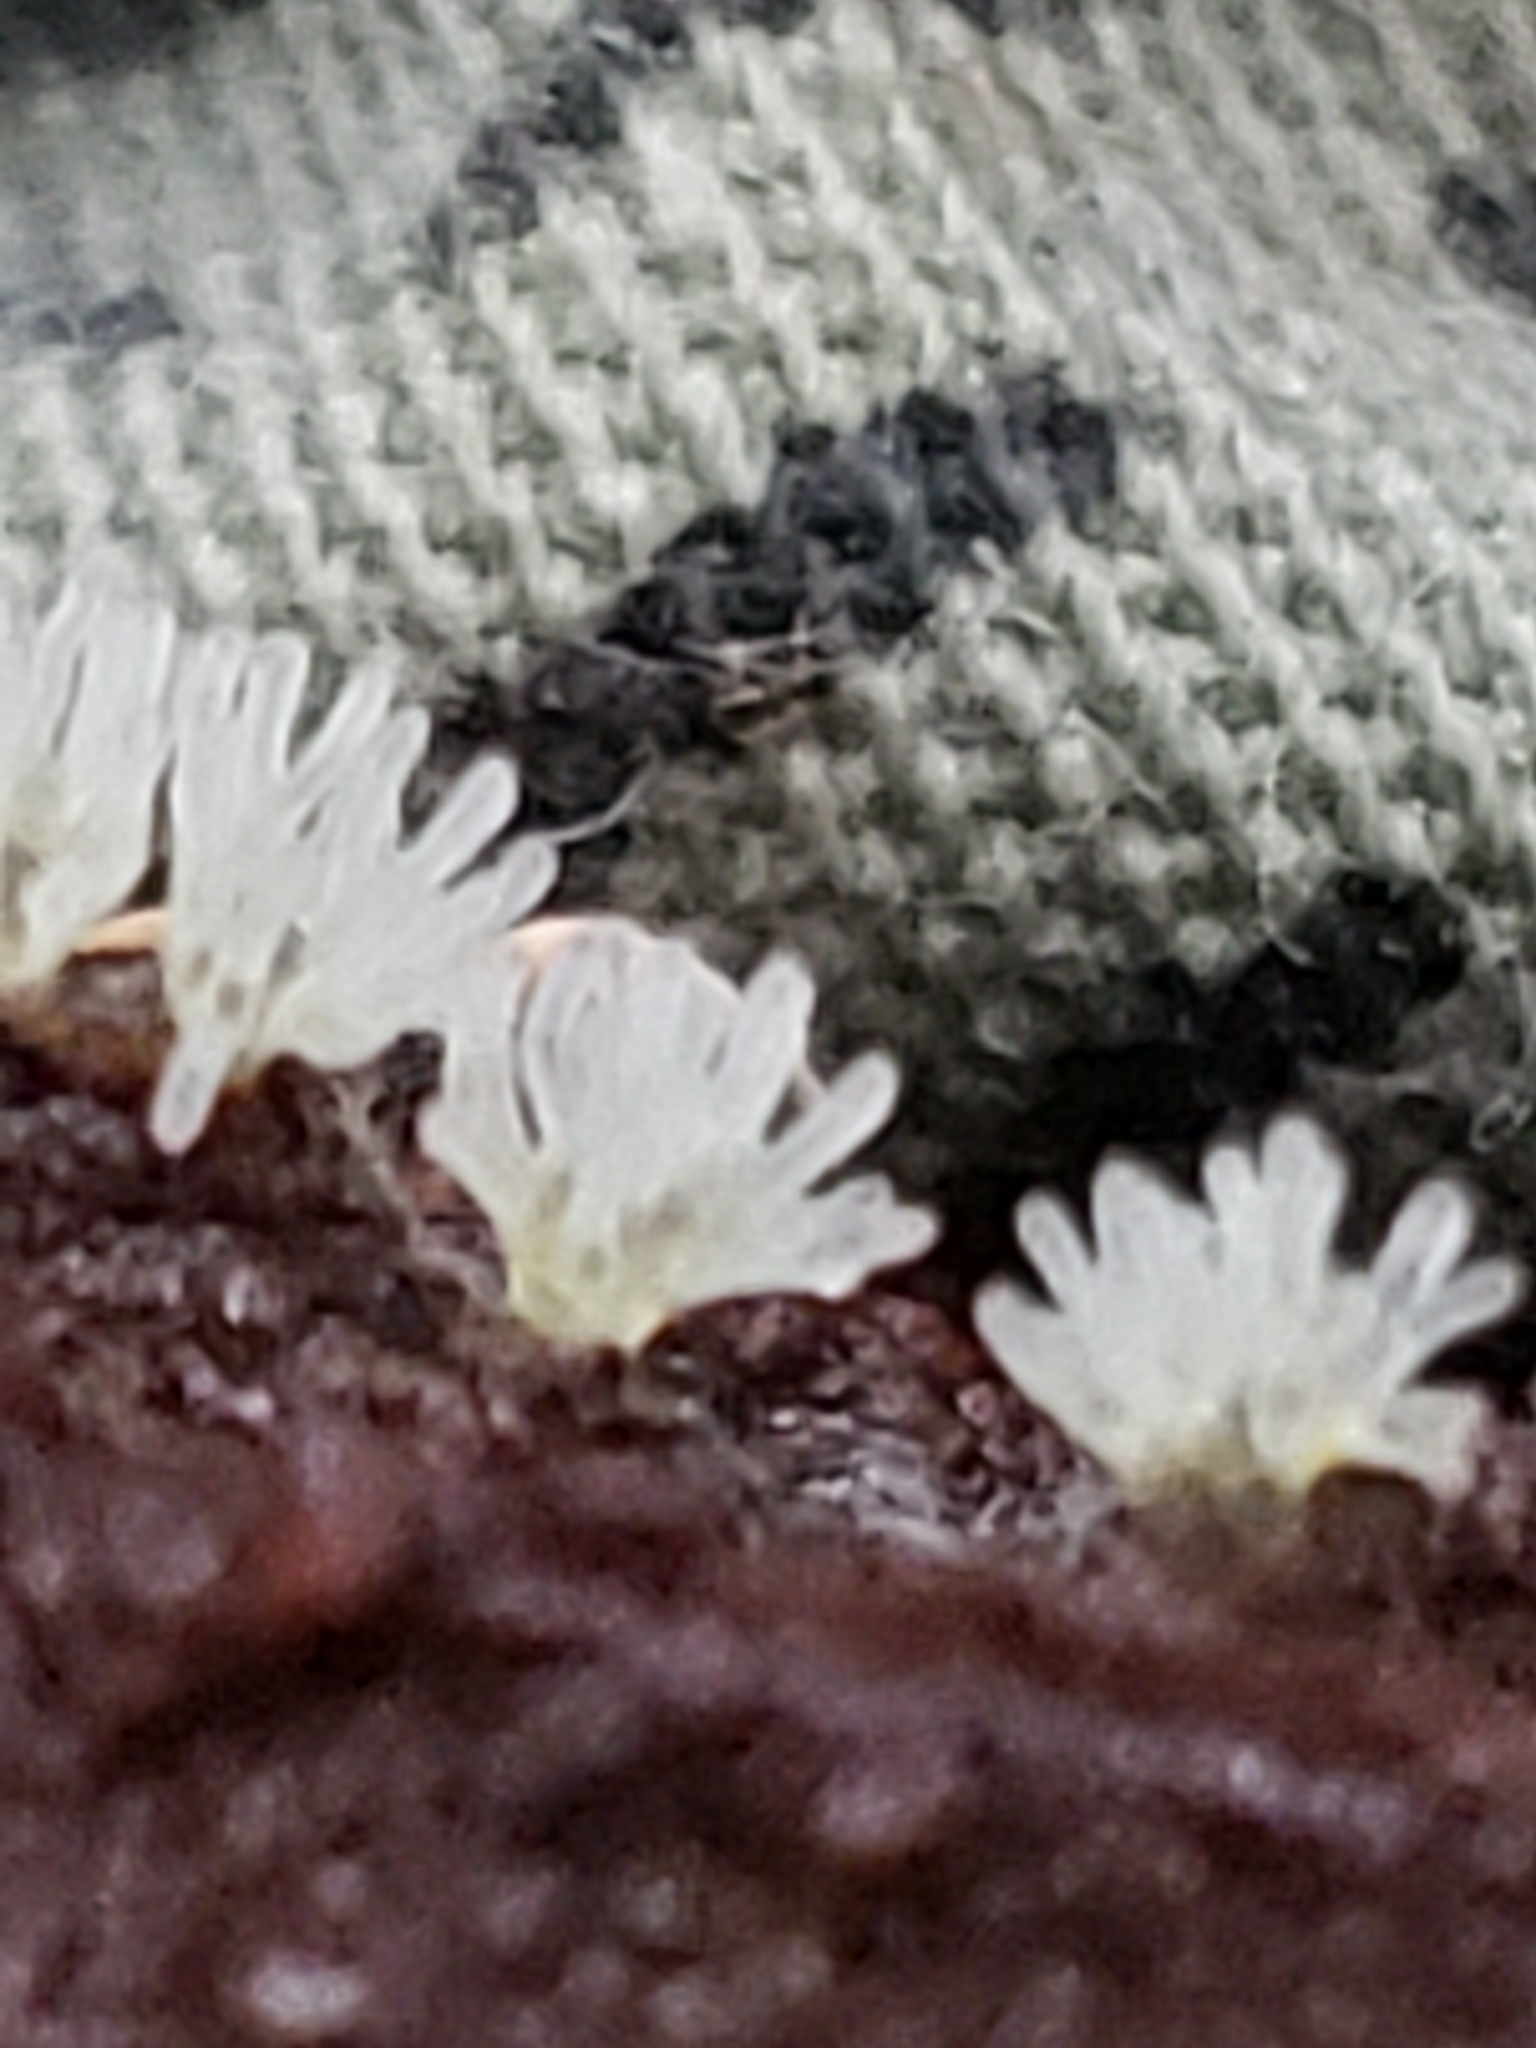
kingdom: Protozoa
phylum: Mycetozoa
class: Protosteliomycetes
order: Ceratiomyxales
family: Ceratiomyxaceae
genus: Ceratiomyxa
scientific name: Ceratiomyxa fruticulosa
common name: Honeycomb coral slime mold
